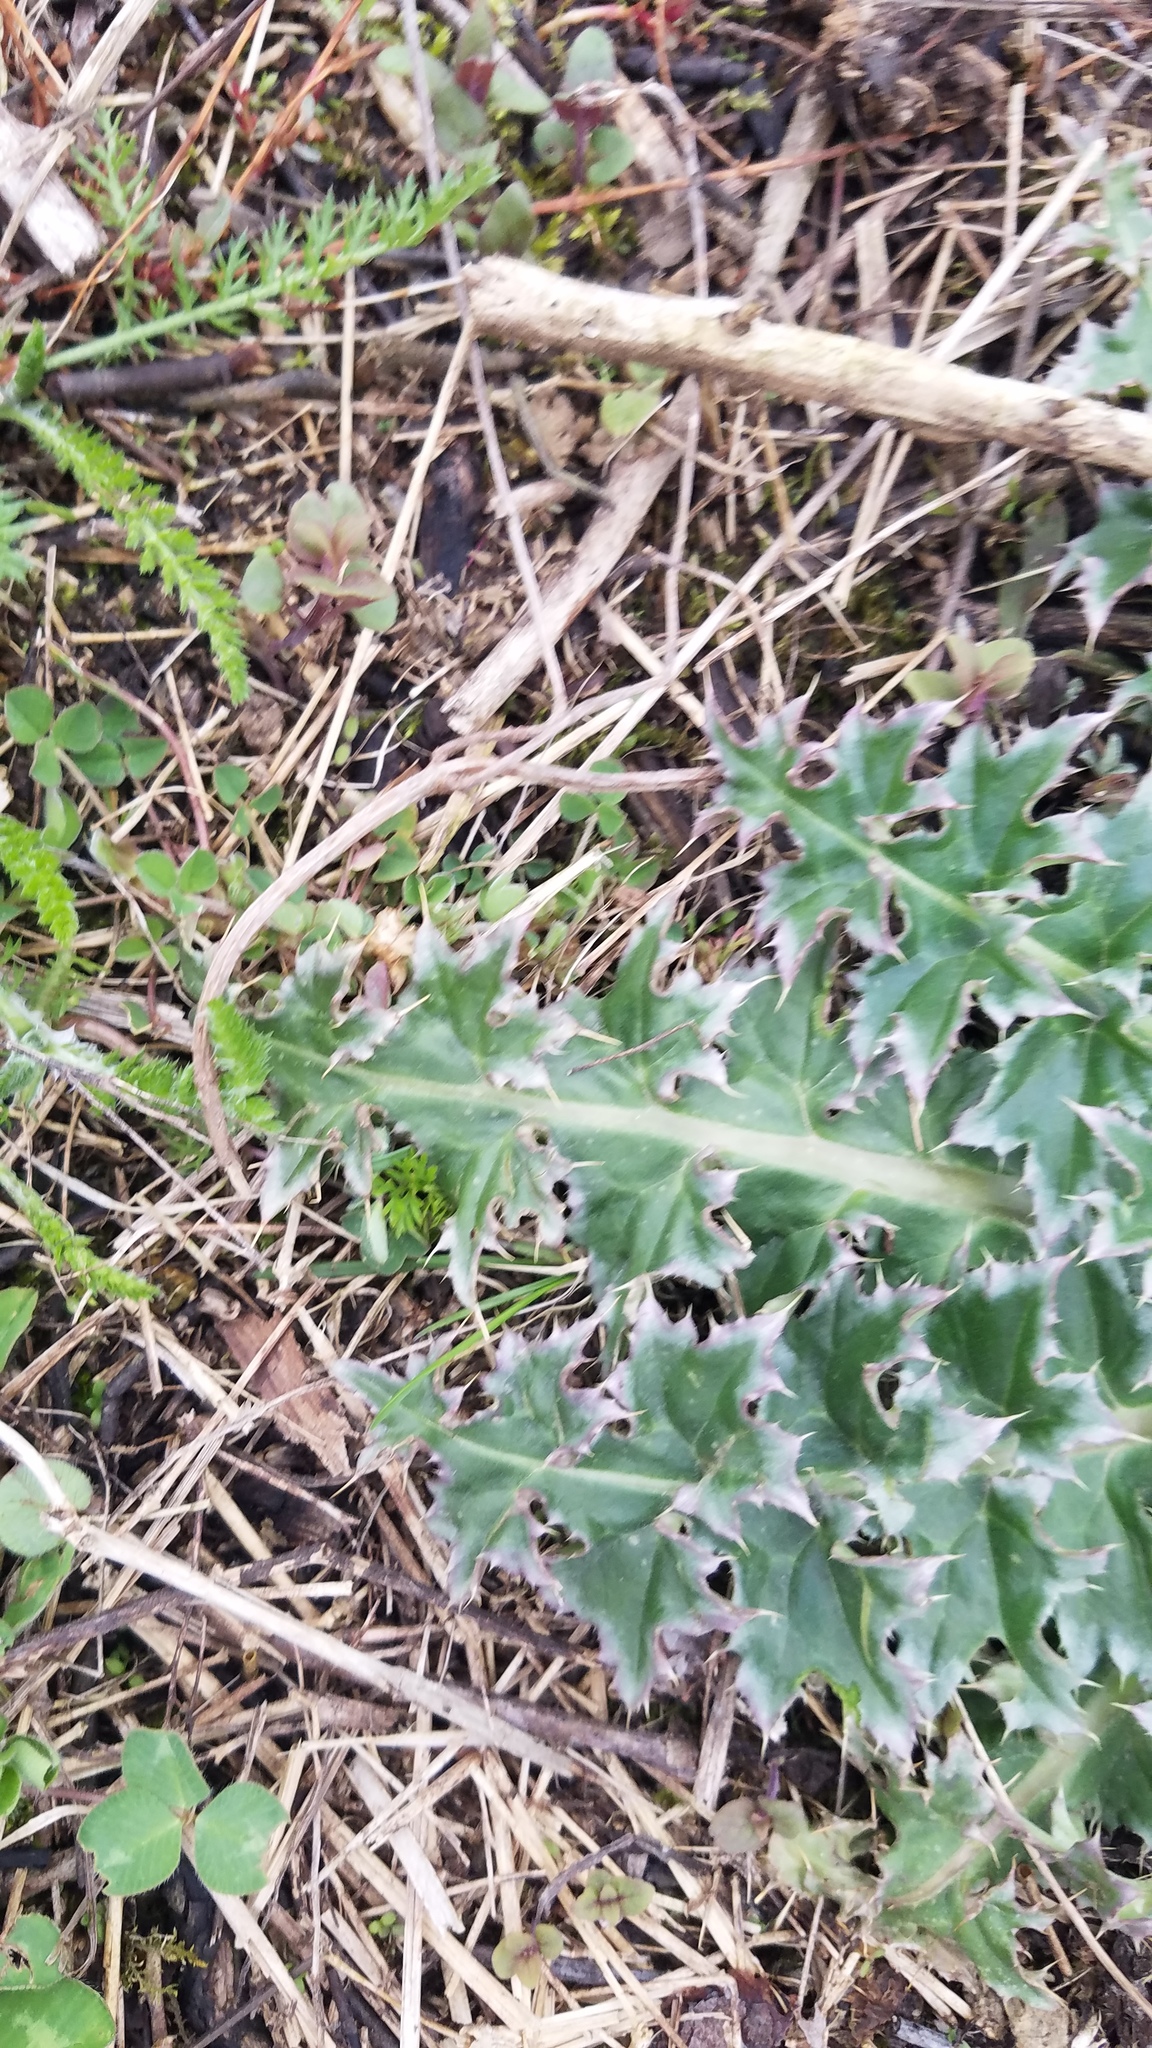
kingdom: Plantae
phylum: Tracheophyta
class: Magnoliopsida
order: Asterales
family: Asteraceae
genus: Carduus
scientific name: Carduus nutans
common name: Musk thistle
